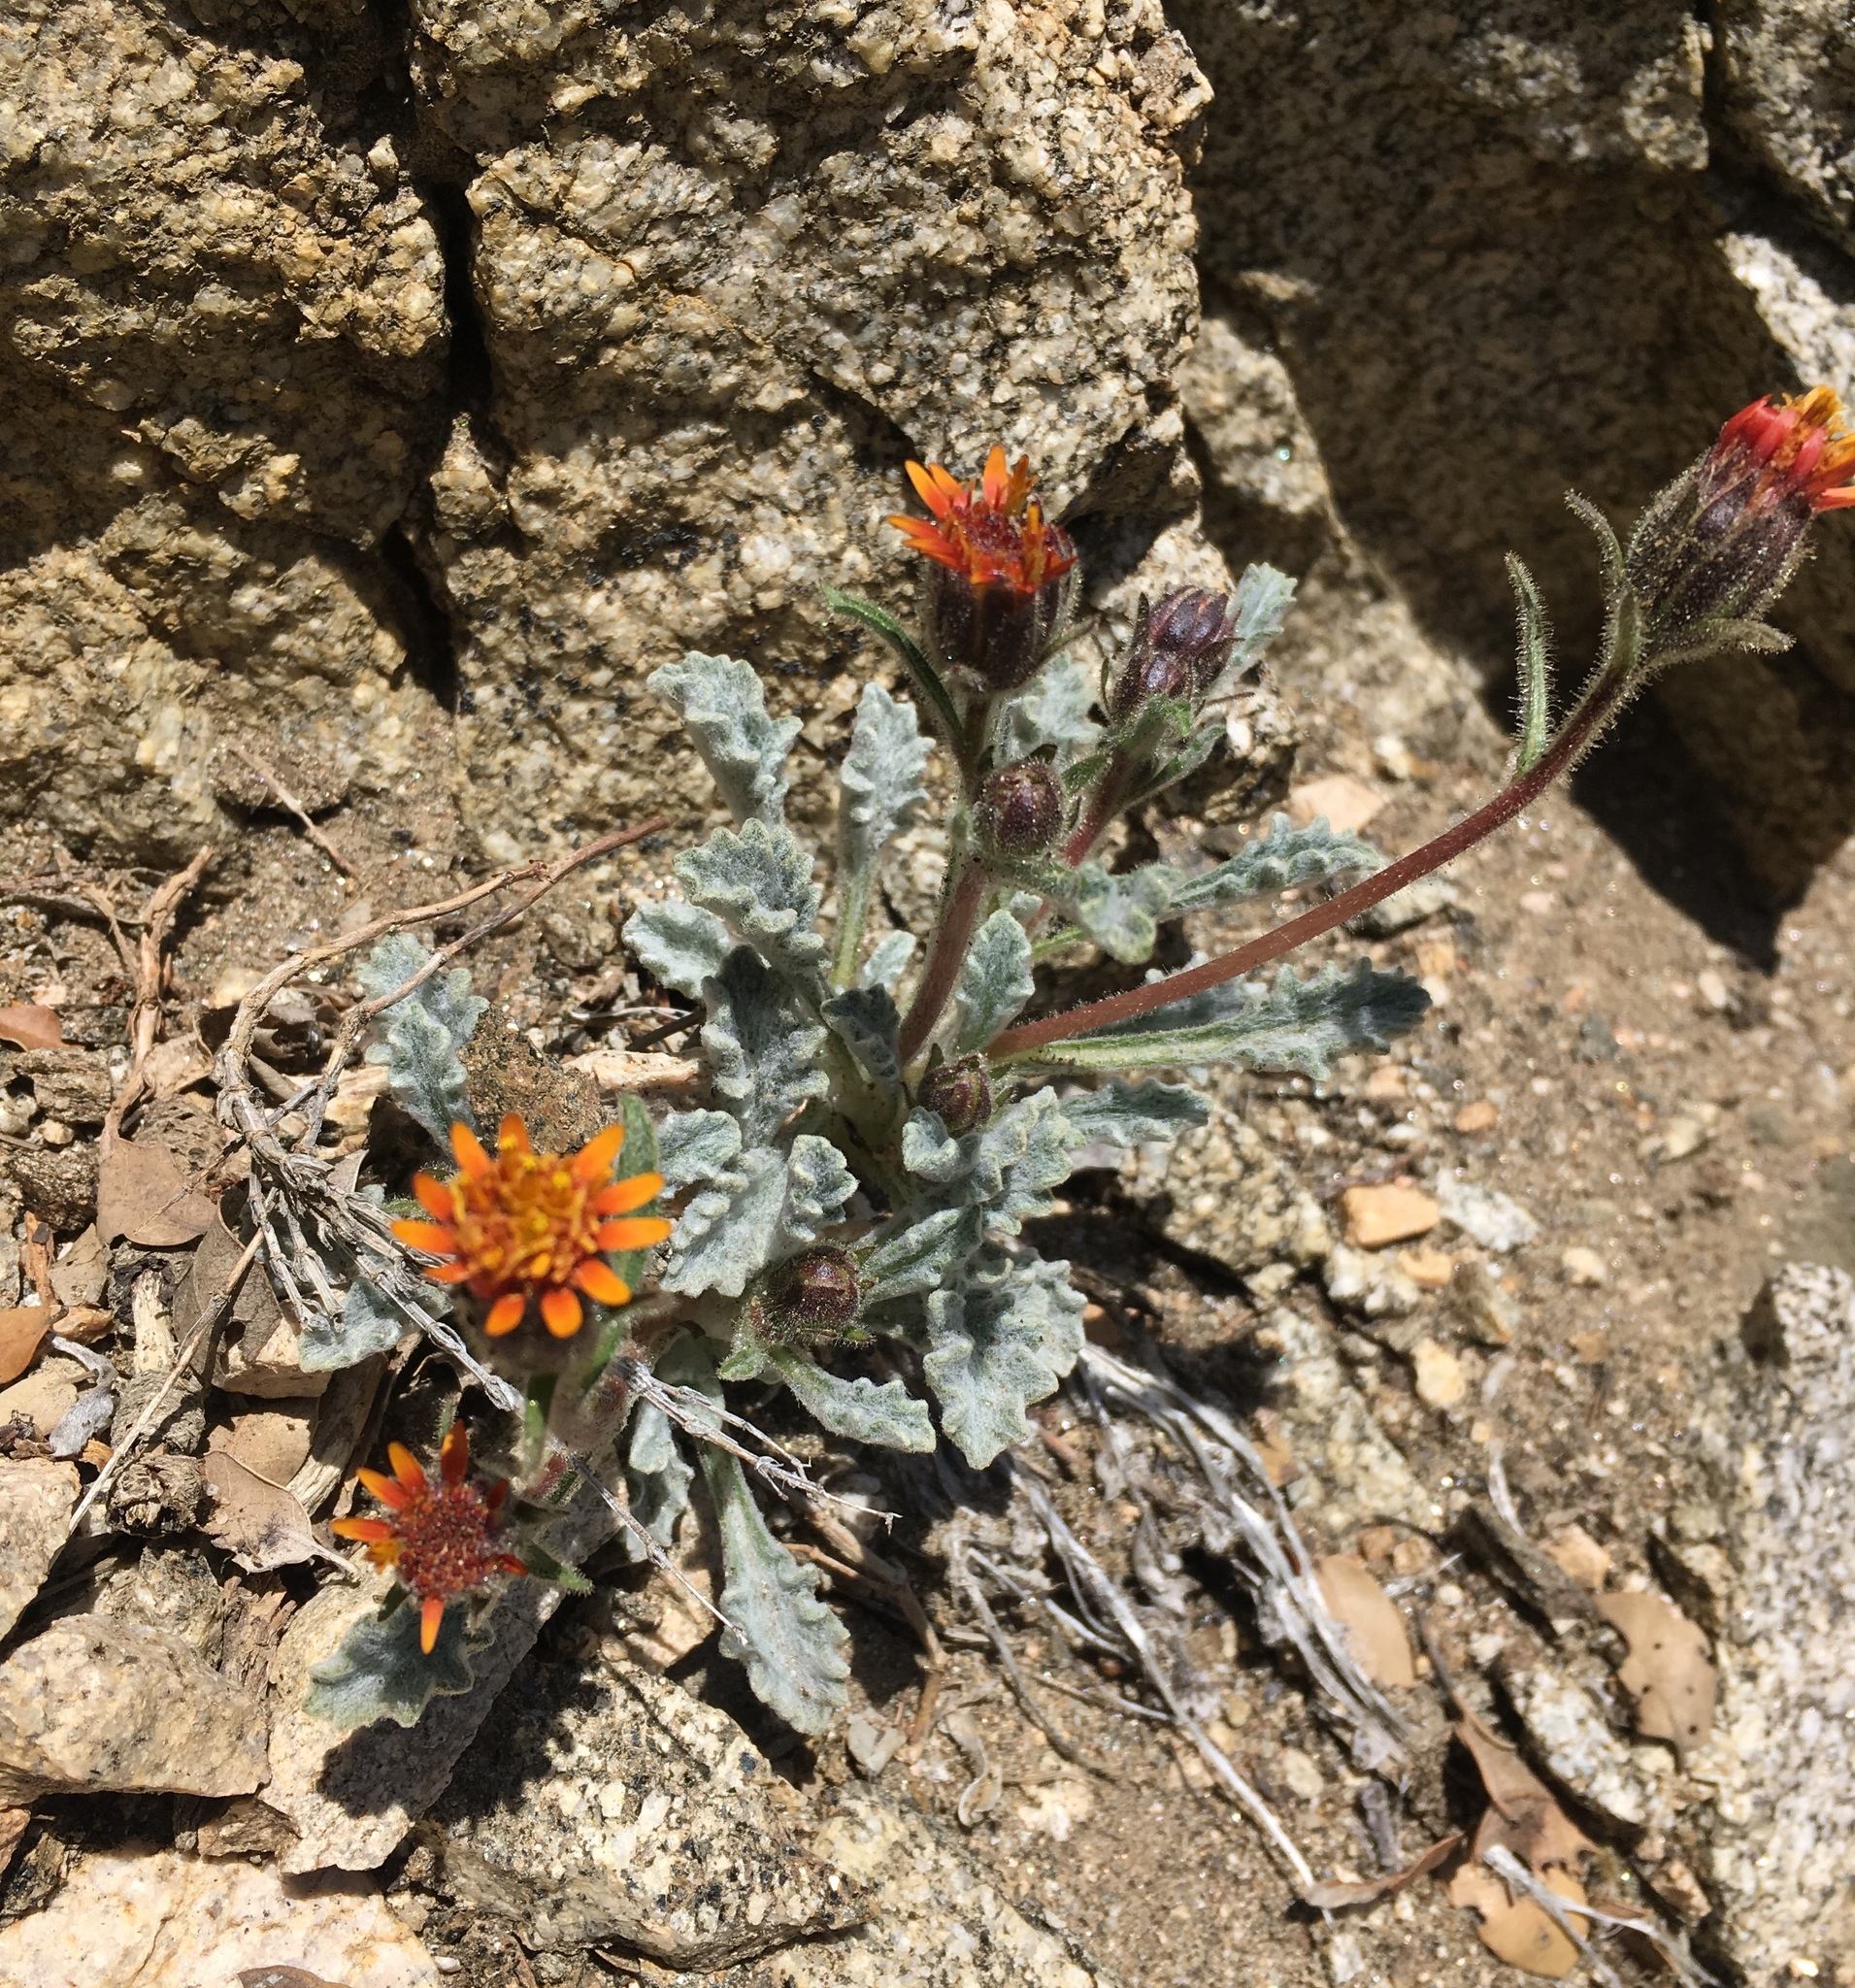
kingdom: Plantae
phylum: Tracheophyta
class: Magnoliopsida
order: Asterales
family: Asteraceae
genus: Hulsea
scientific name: Hulsea vestita
